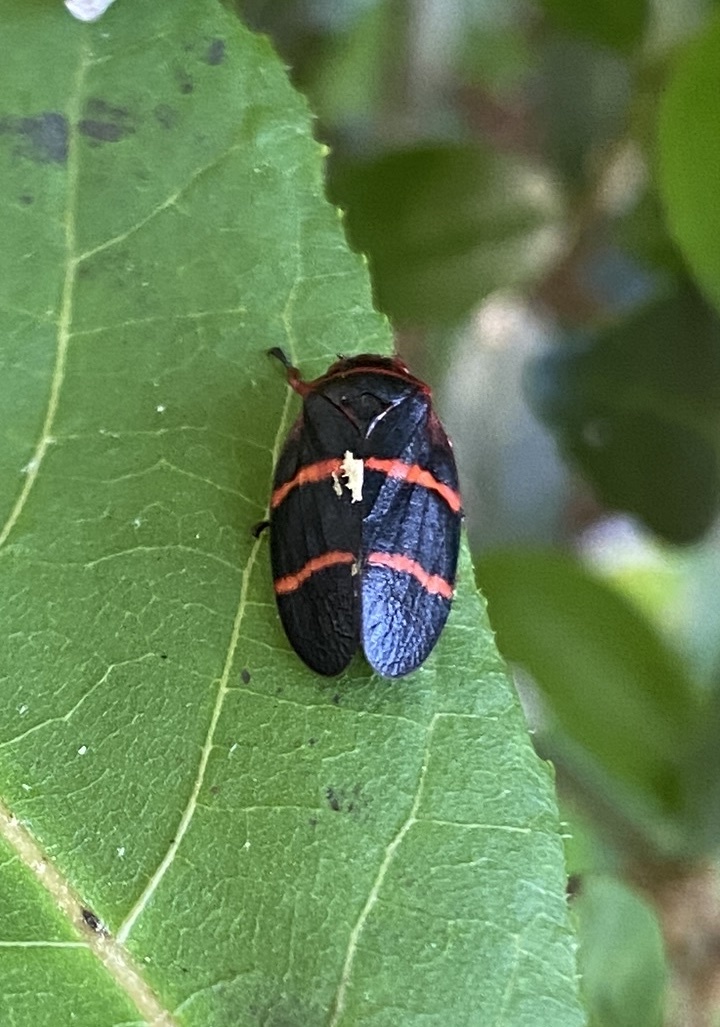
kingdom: Animalia
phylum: Arthropoda
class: Insecta
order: Hemiptera
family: Cercopidae
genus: Prosapia
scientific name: Prosapia bicincta
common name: Twolined spittlebug
